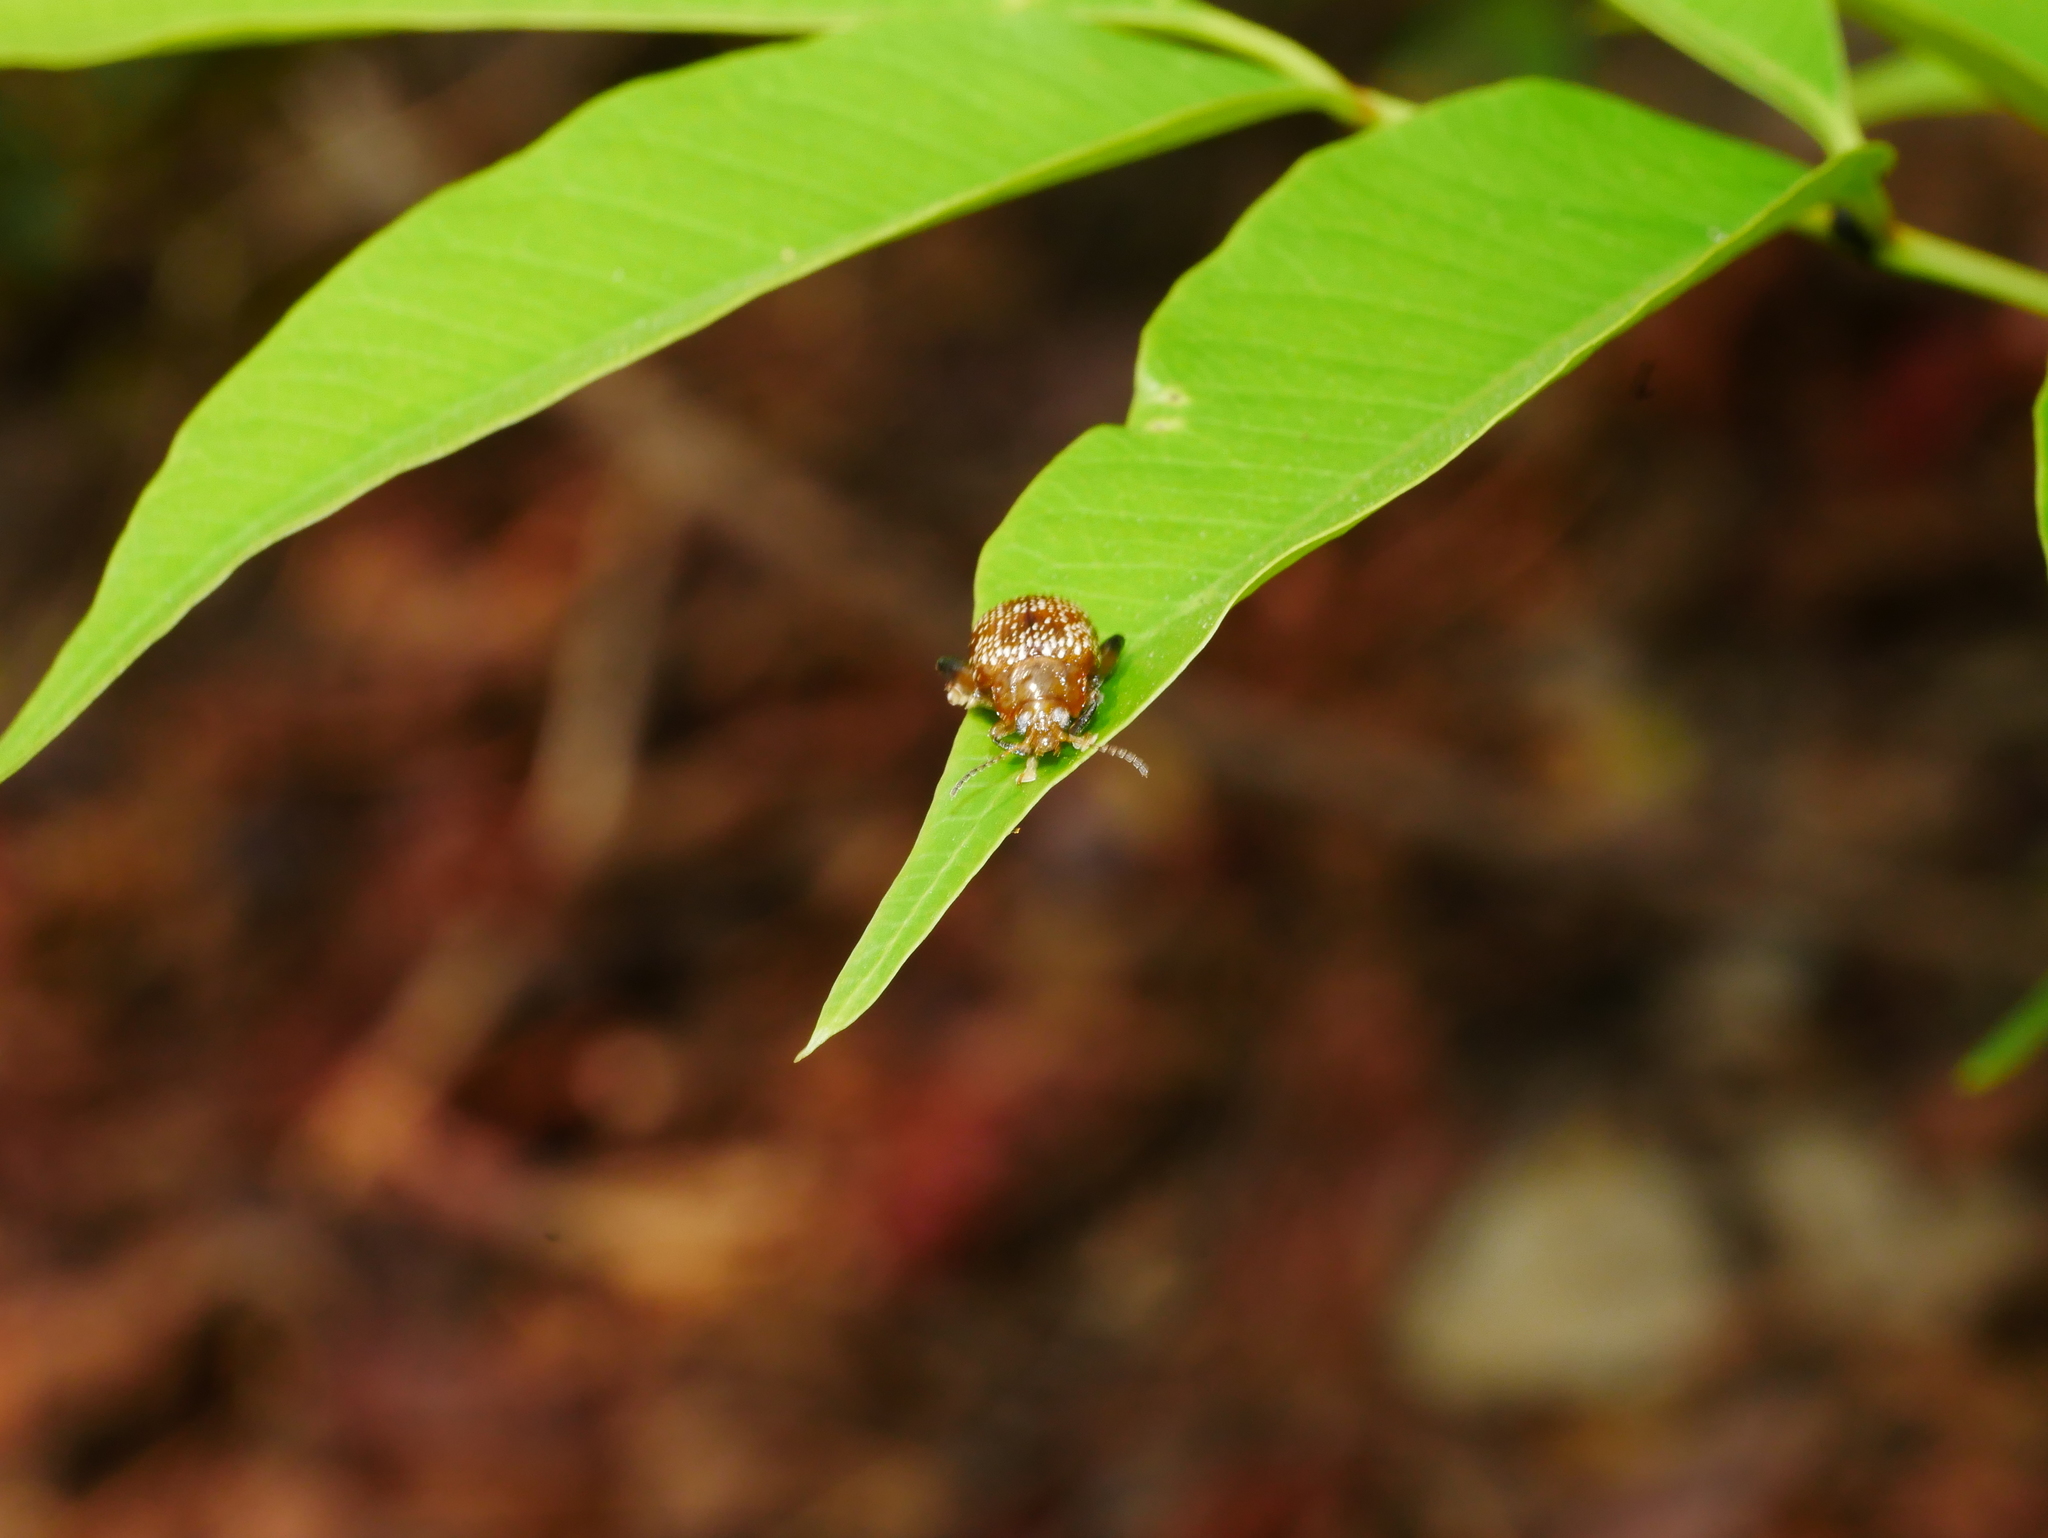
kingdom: Animalia
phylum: Arthropoda
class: Insecta
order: Coleoptera
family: Chrysomelidae
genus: Asiophrida
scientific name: Asiophrida
